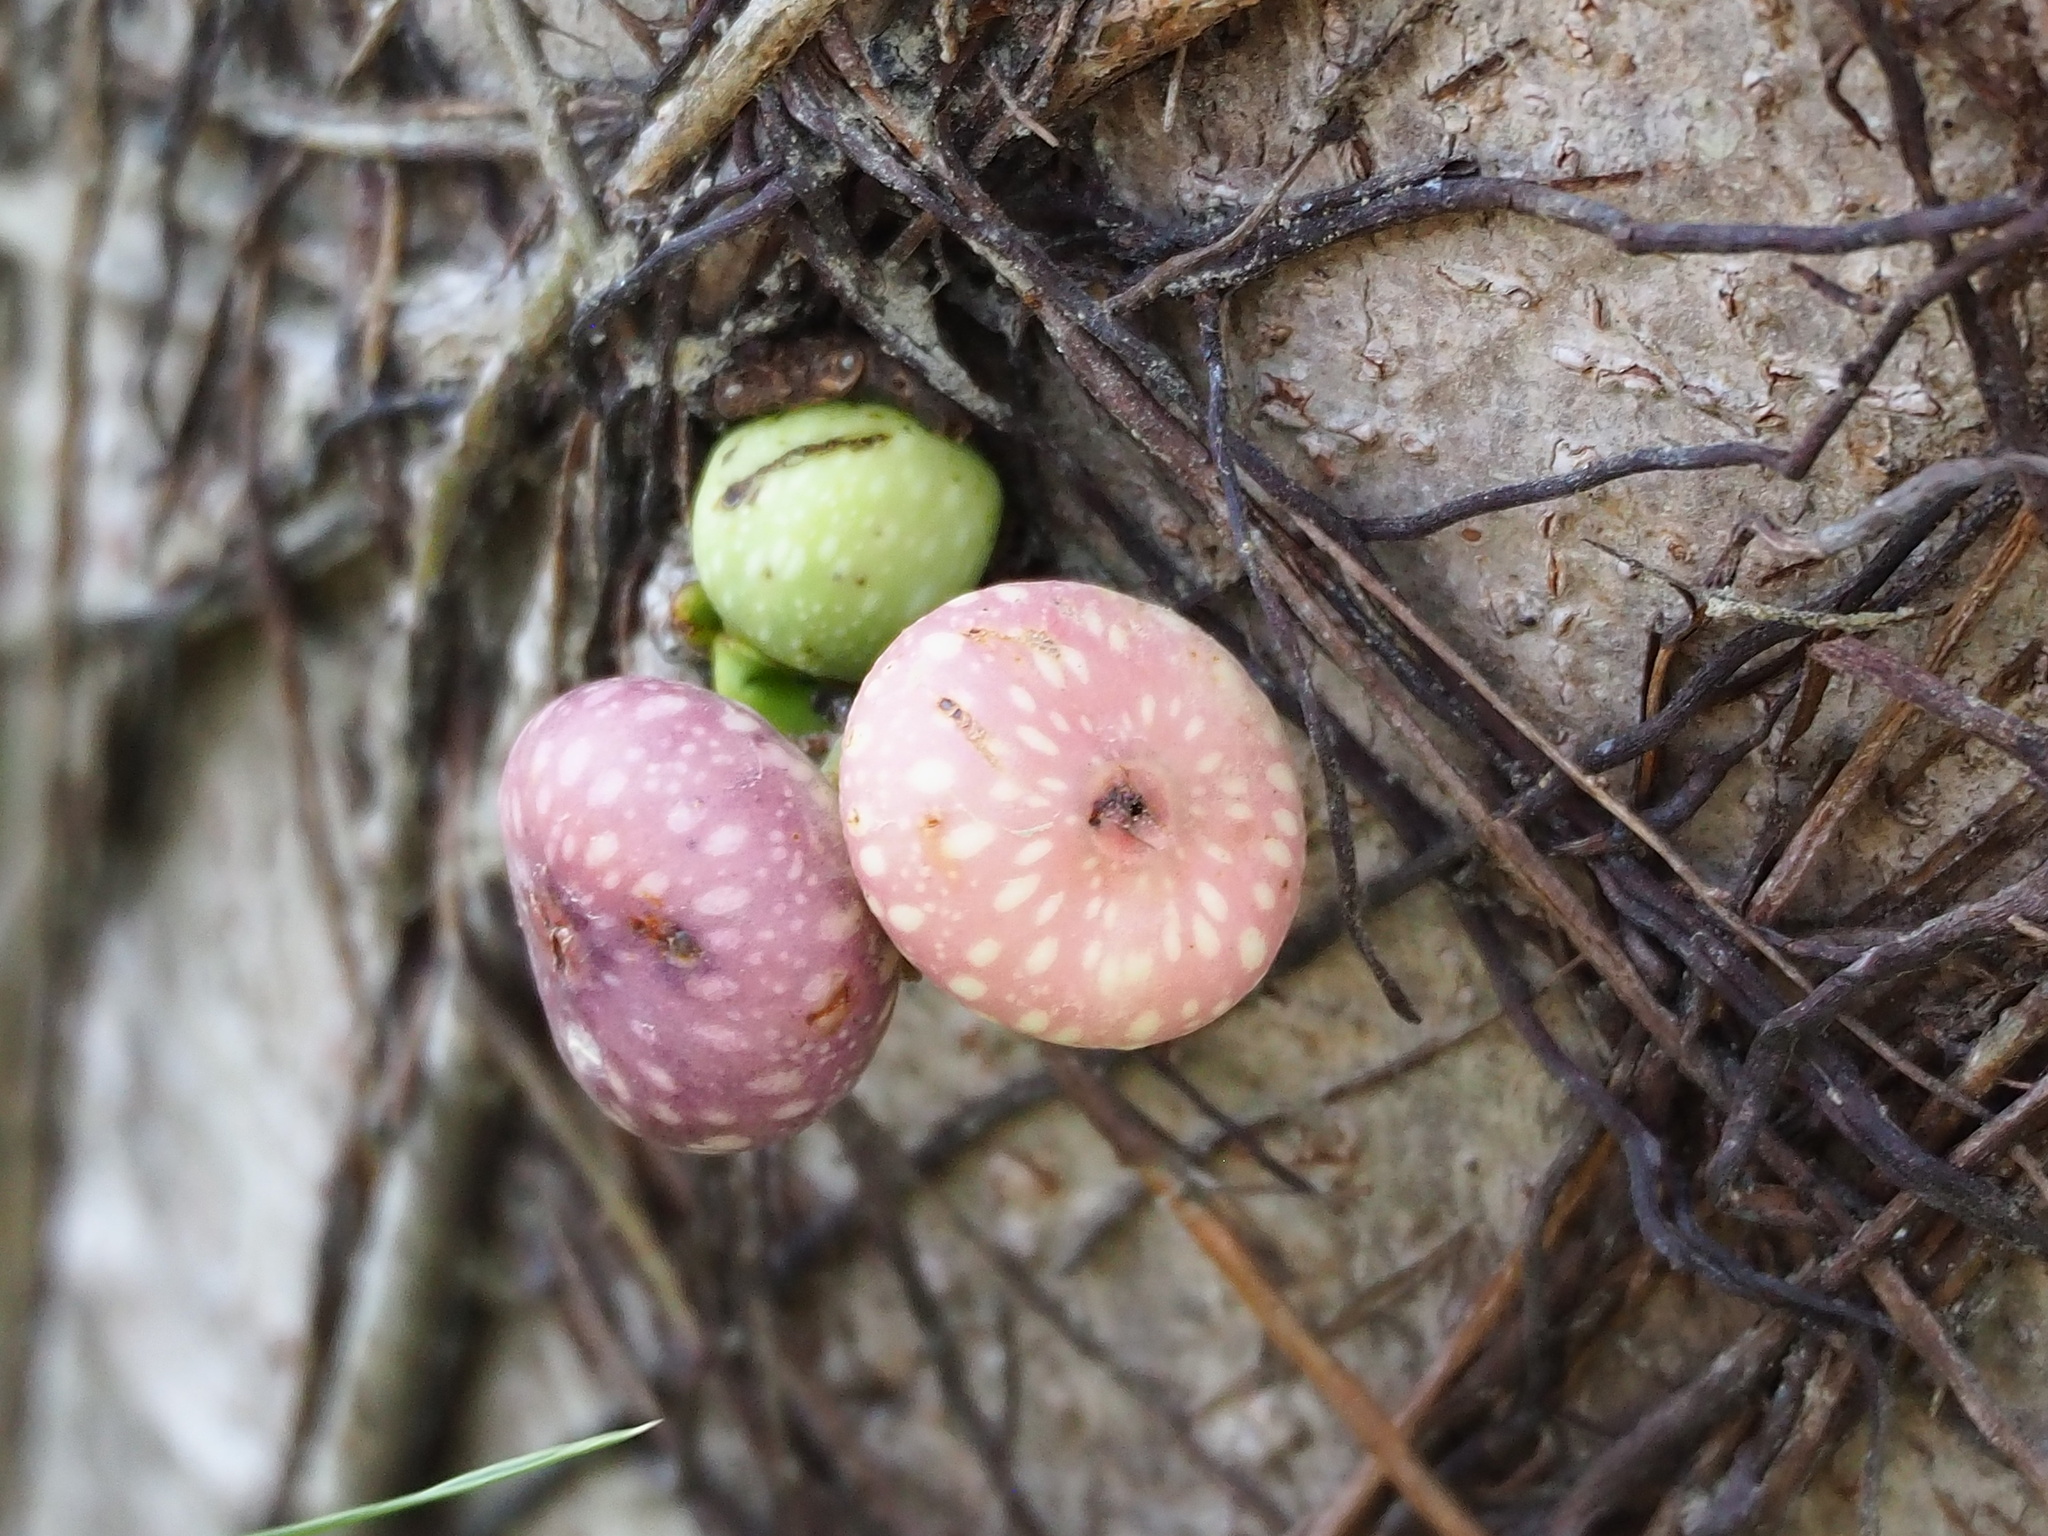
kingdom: Plantae
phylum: Tracheophyta
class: Magnoliopsida
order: Rosales
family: Moraceae
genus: Ficus
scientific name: Ficus subpisocarpa
